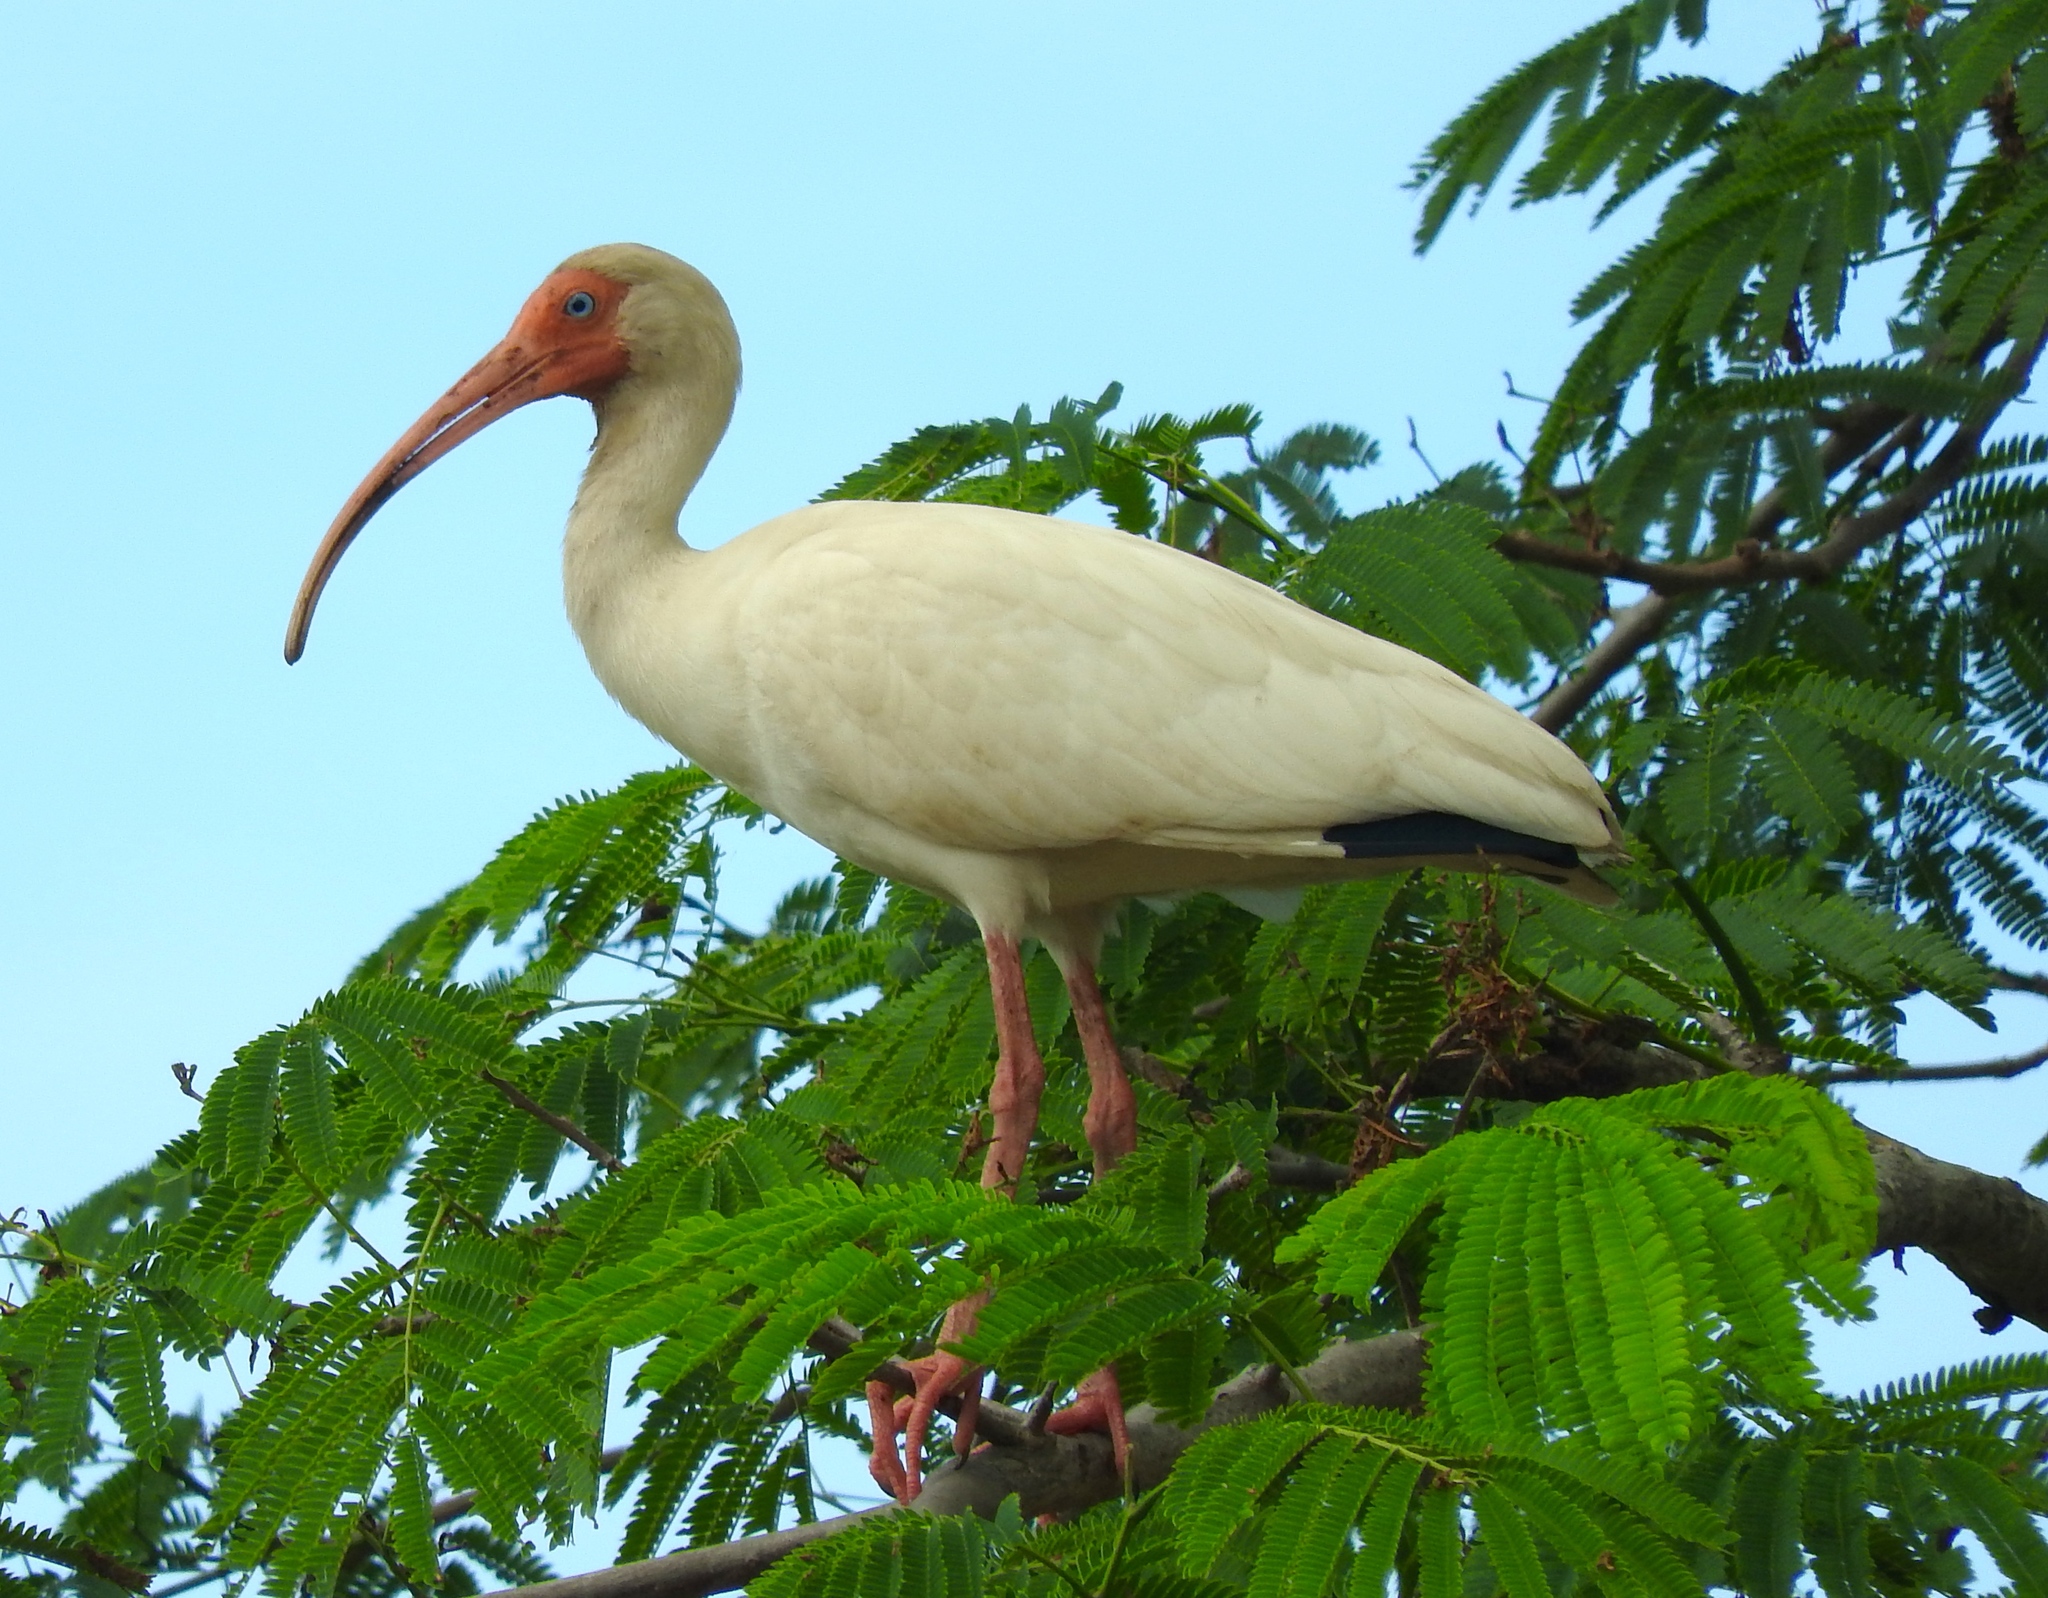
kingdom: Animalia
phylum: Chordata
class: Aves
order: Pelecaniformes
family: Threskiornithidae
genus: Eudocimus
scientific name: Eudocimus albus
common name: White ibis
